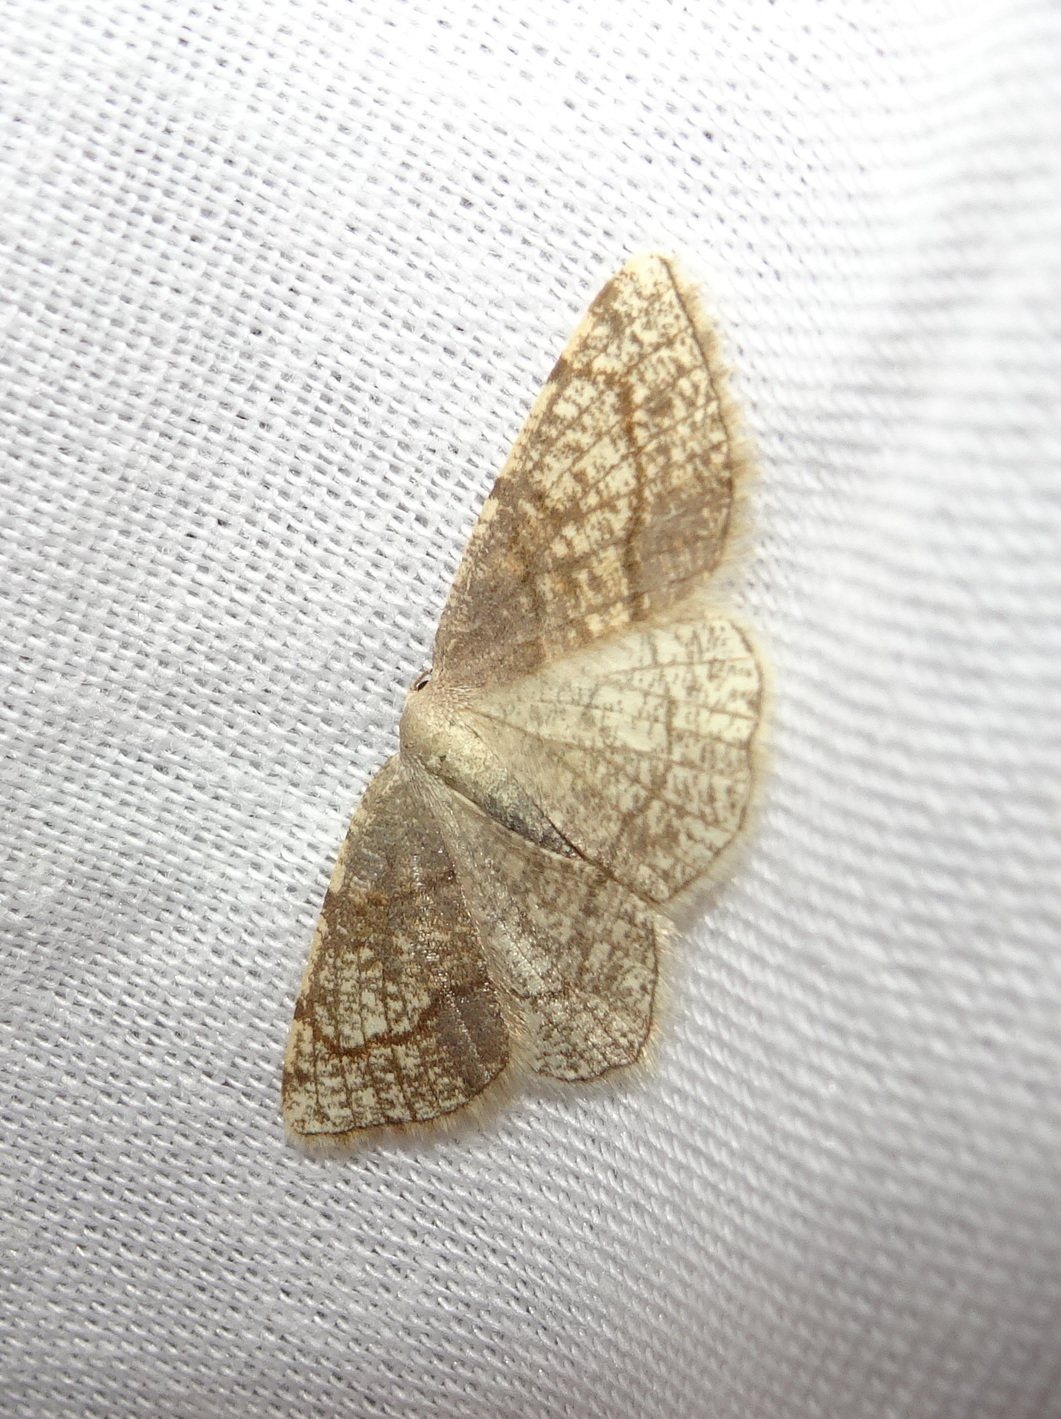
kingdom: Animalia
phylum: Arthropoda
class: Insecta
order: Lepidoptera
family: Geometridae
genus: Stegania
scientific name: Stegania trimaculata
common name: Dorset cream wave
